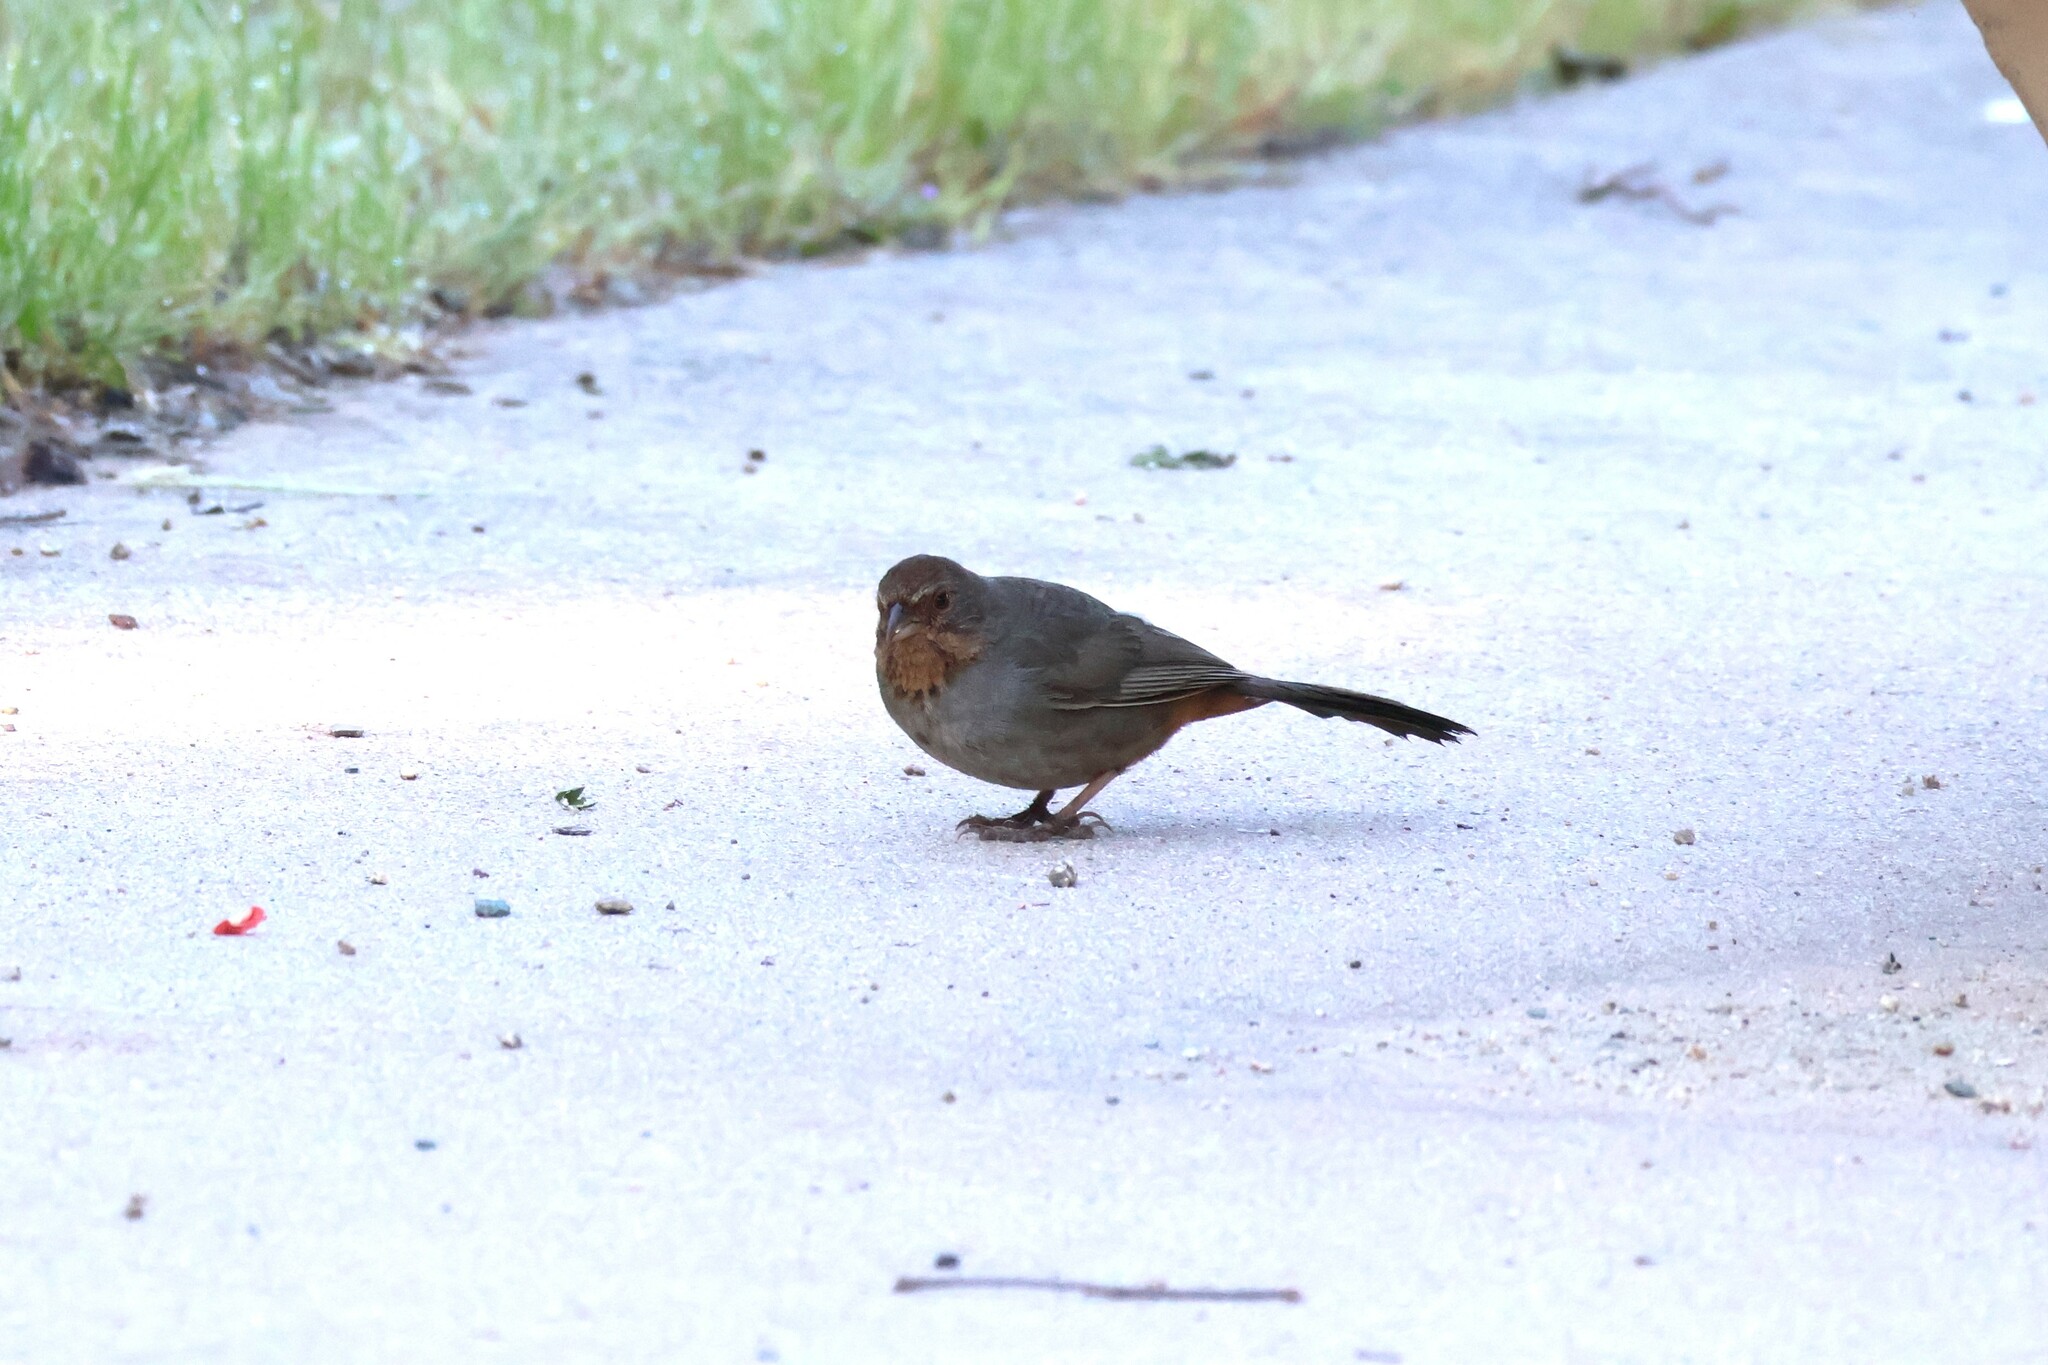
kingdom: Animalia
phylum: Chordata
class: Aves
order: Passeriformes
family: Passerellidae
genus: Melozone
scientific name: Melozone crissalis
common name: California towhee
